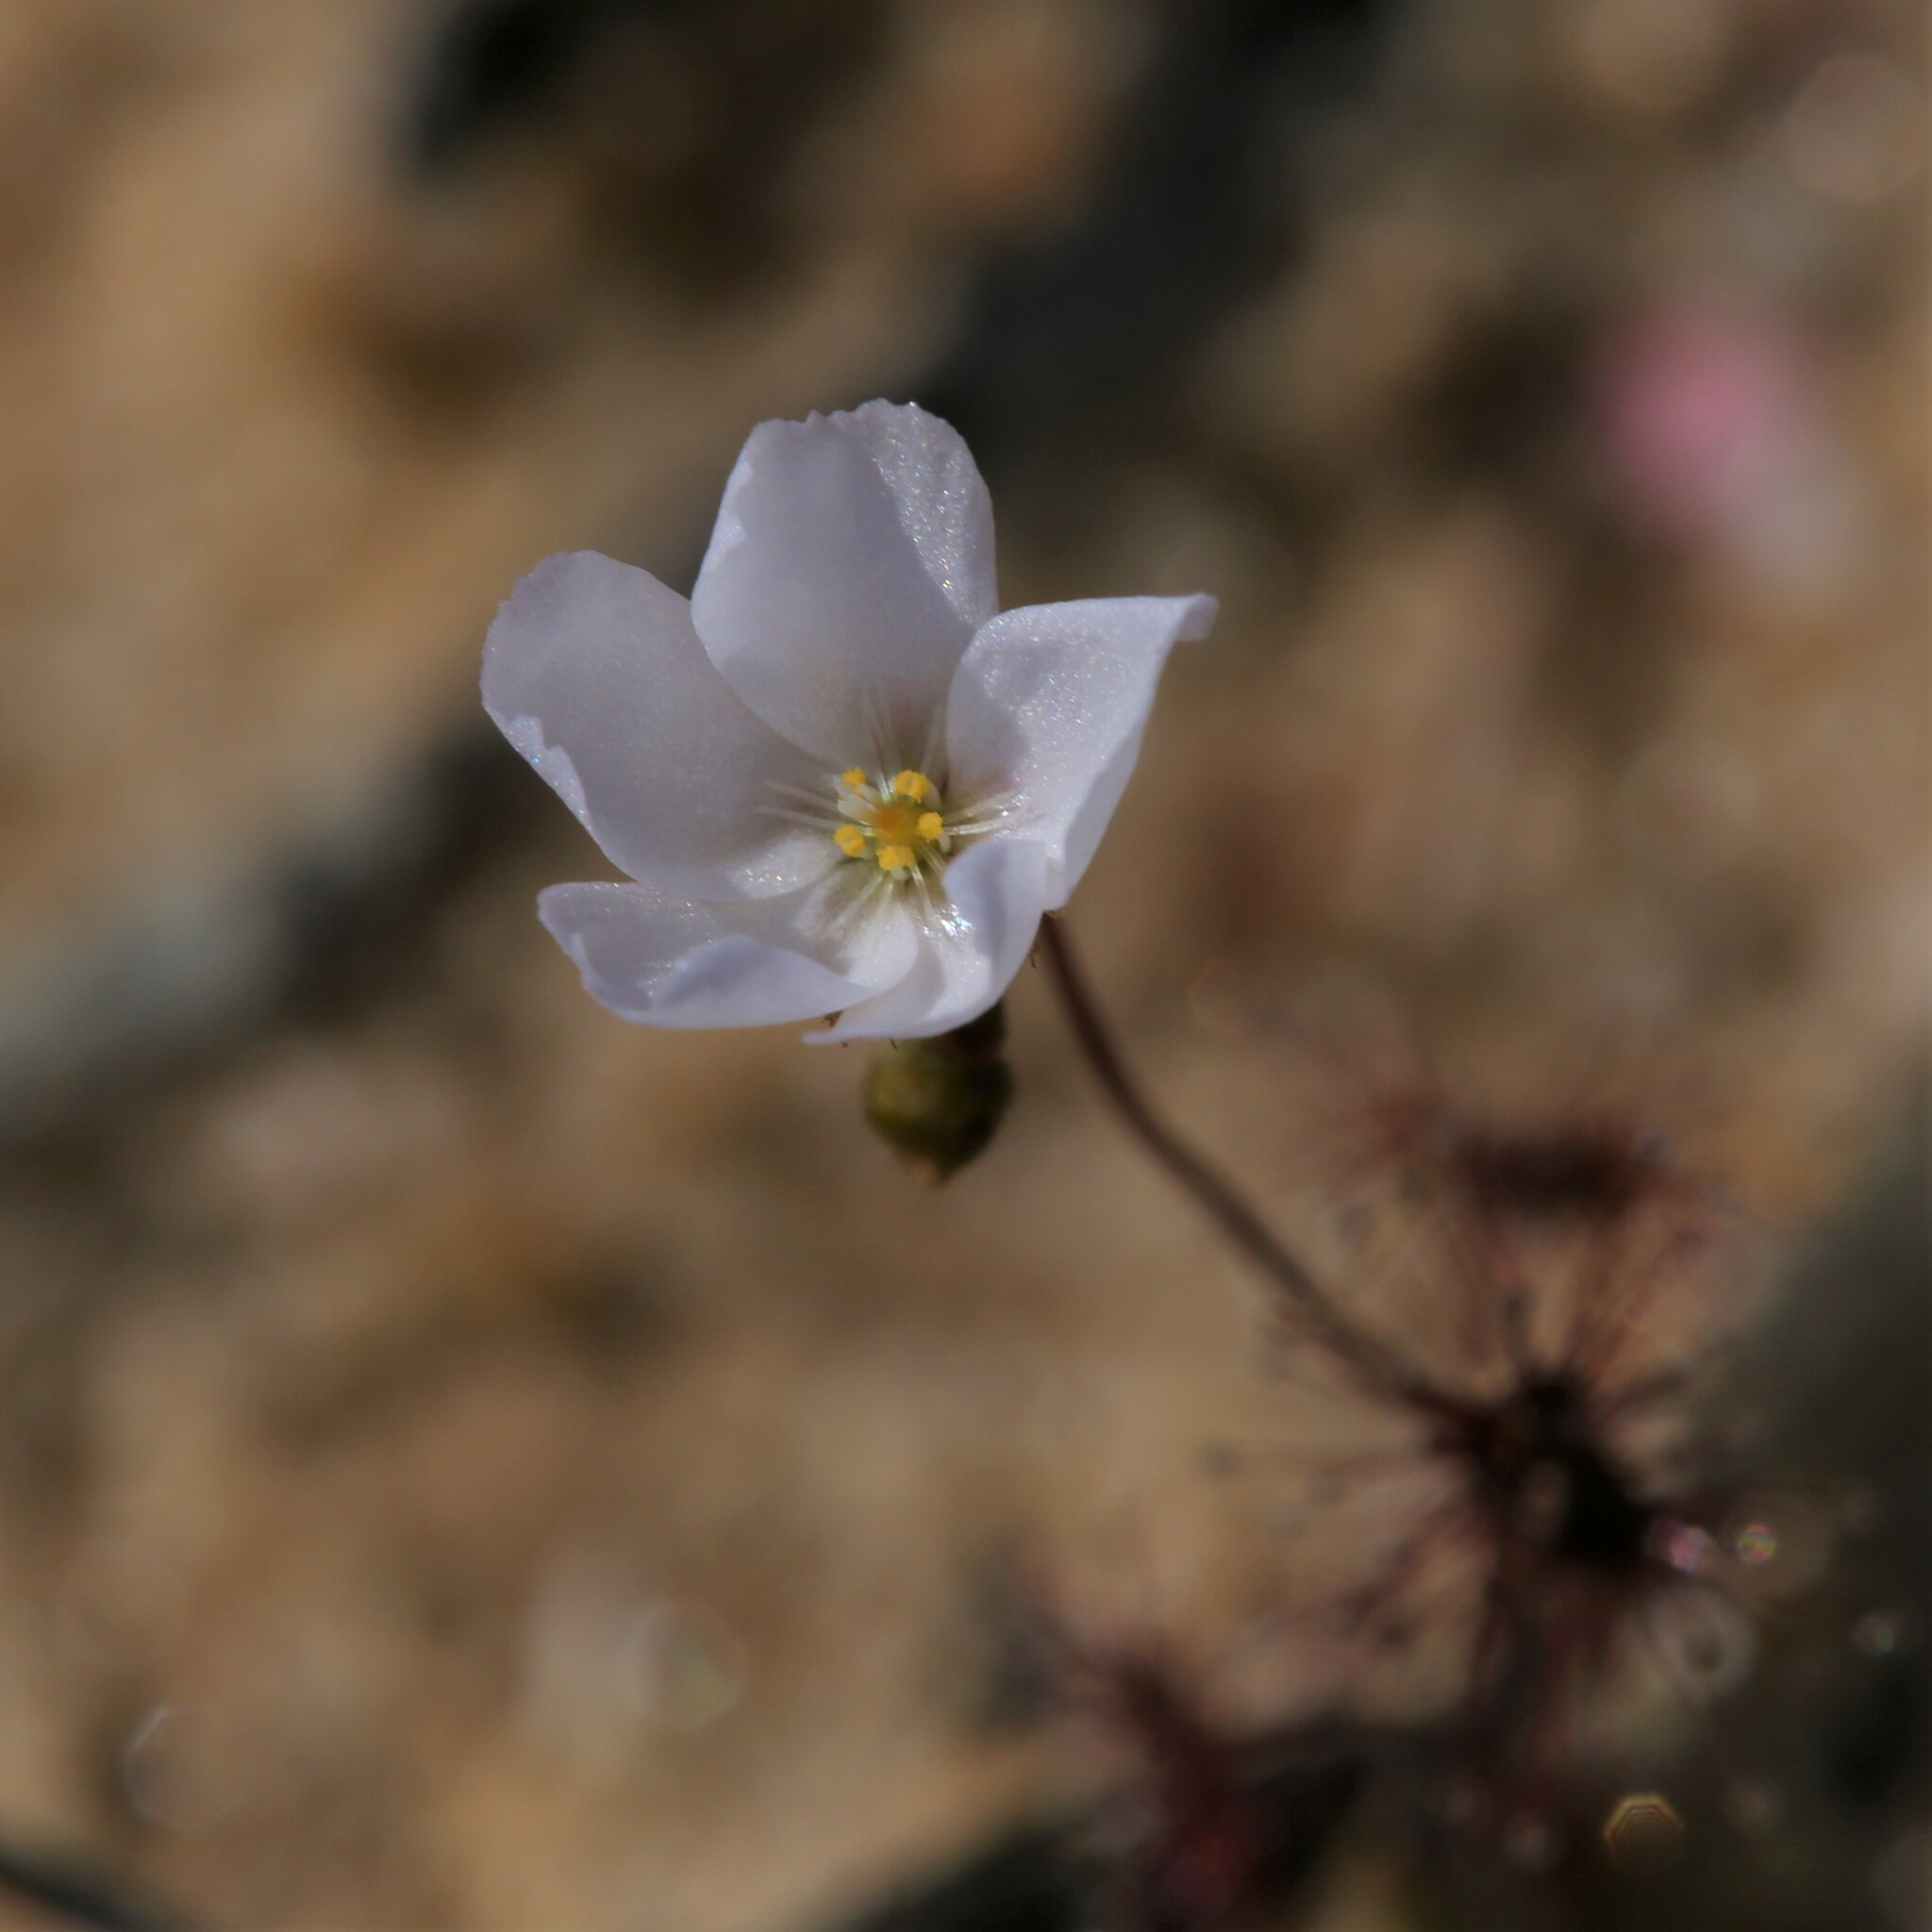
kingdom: Plantae
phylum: Tracheophyta
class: Magnoliopsida
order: Caryophyllales
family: Droseraceae
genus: Drosera
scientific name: Drosera radicans
